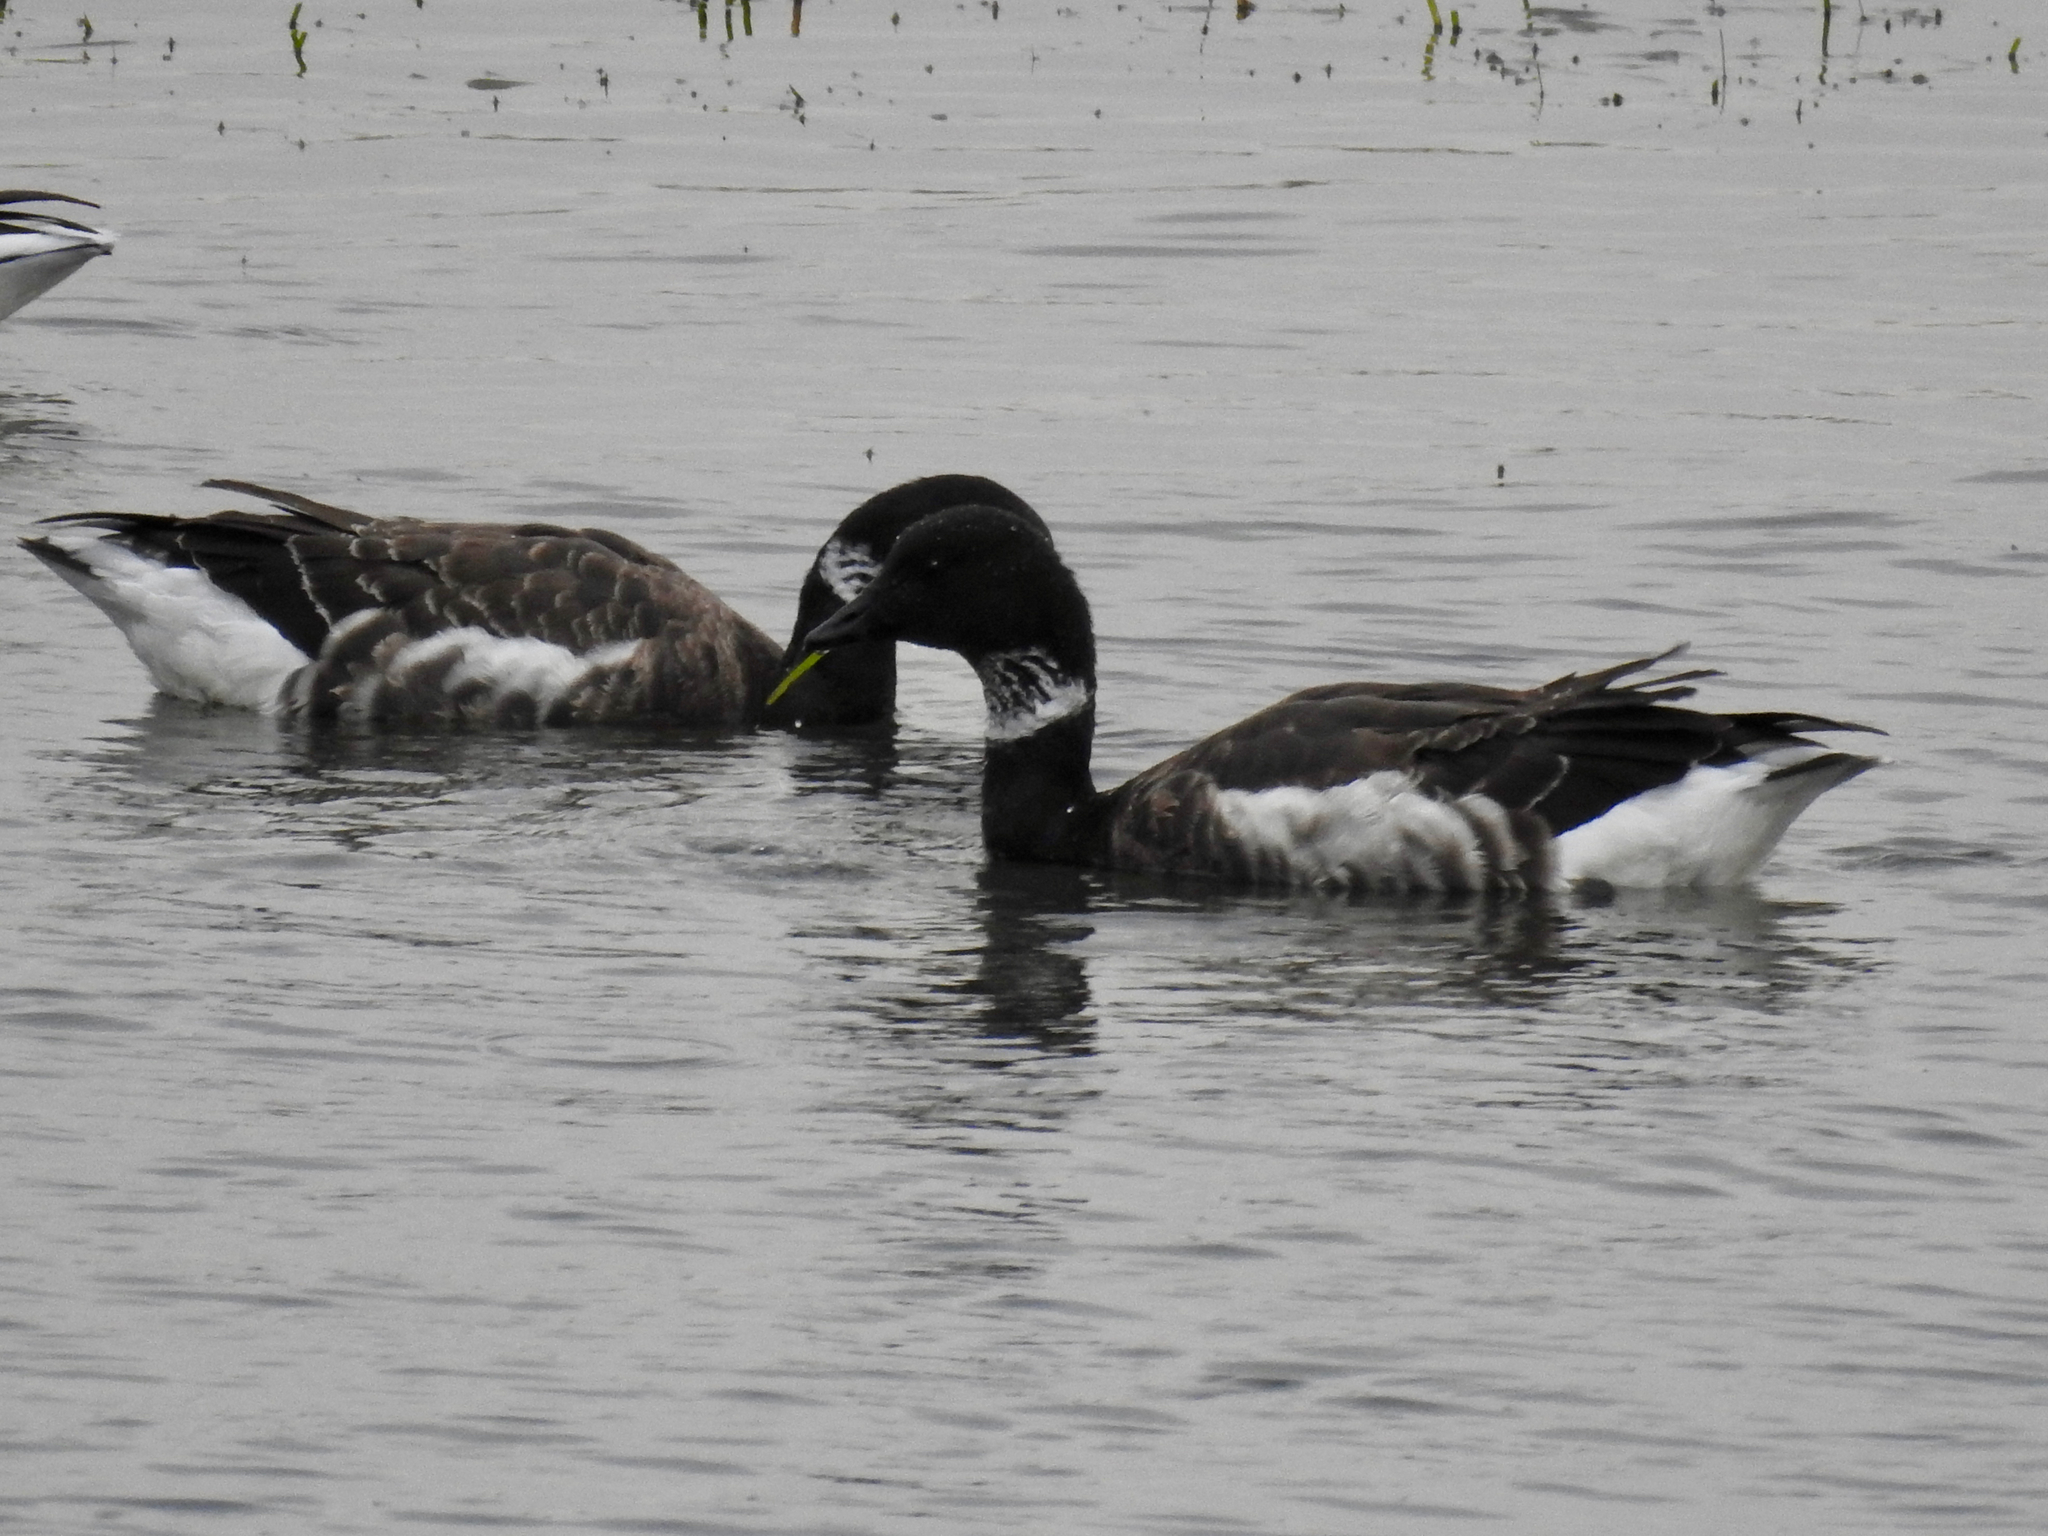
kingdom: Animalia
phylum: Chordata
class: Aves
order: Anseriformes
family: Anatidae
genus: Branta
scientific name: Branta bernicla
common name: Brant goose
